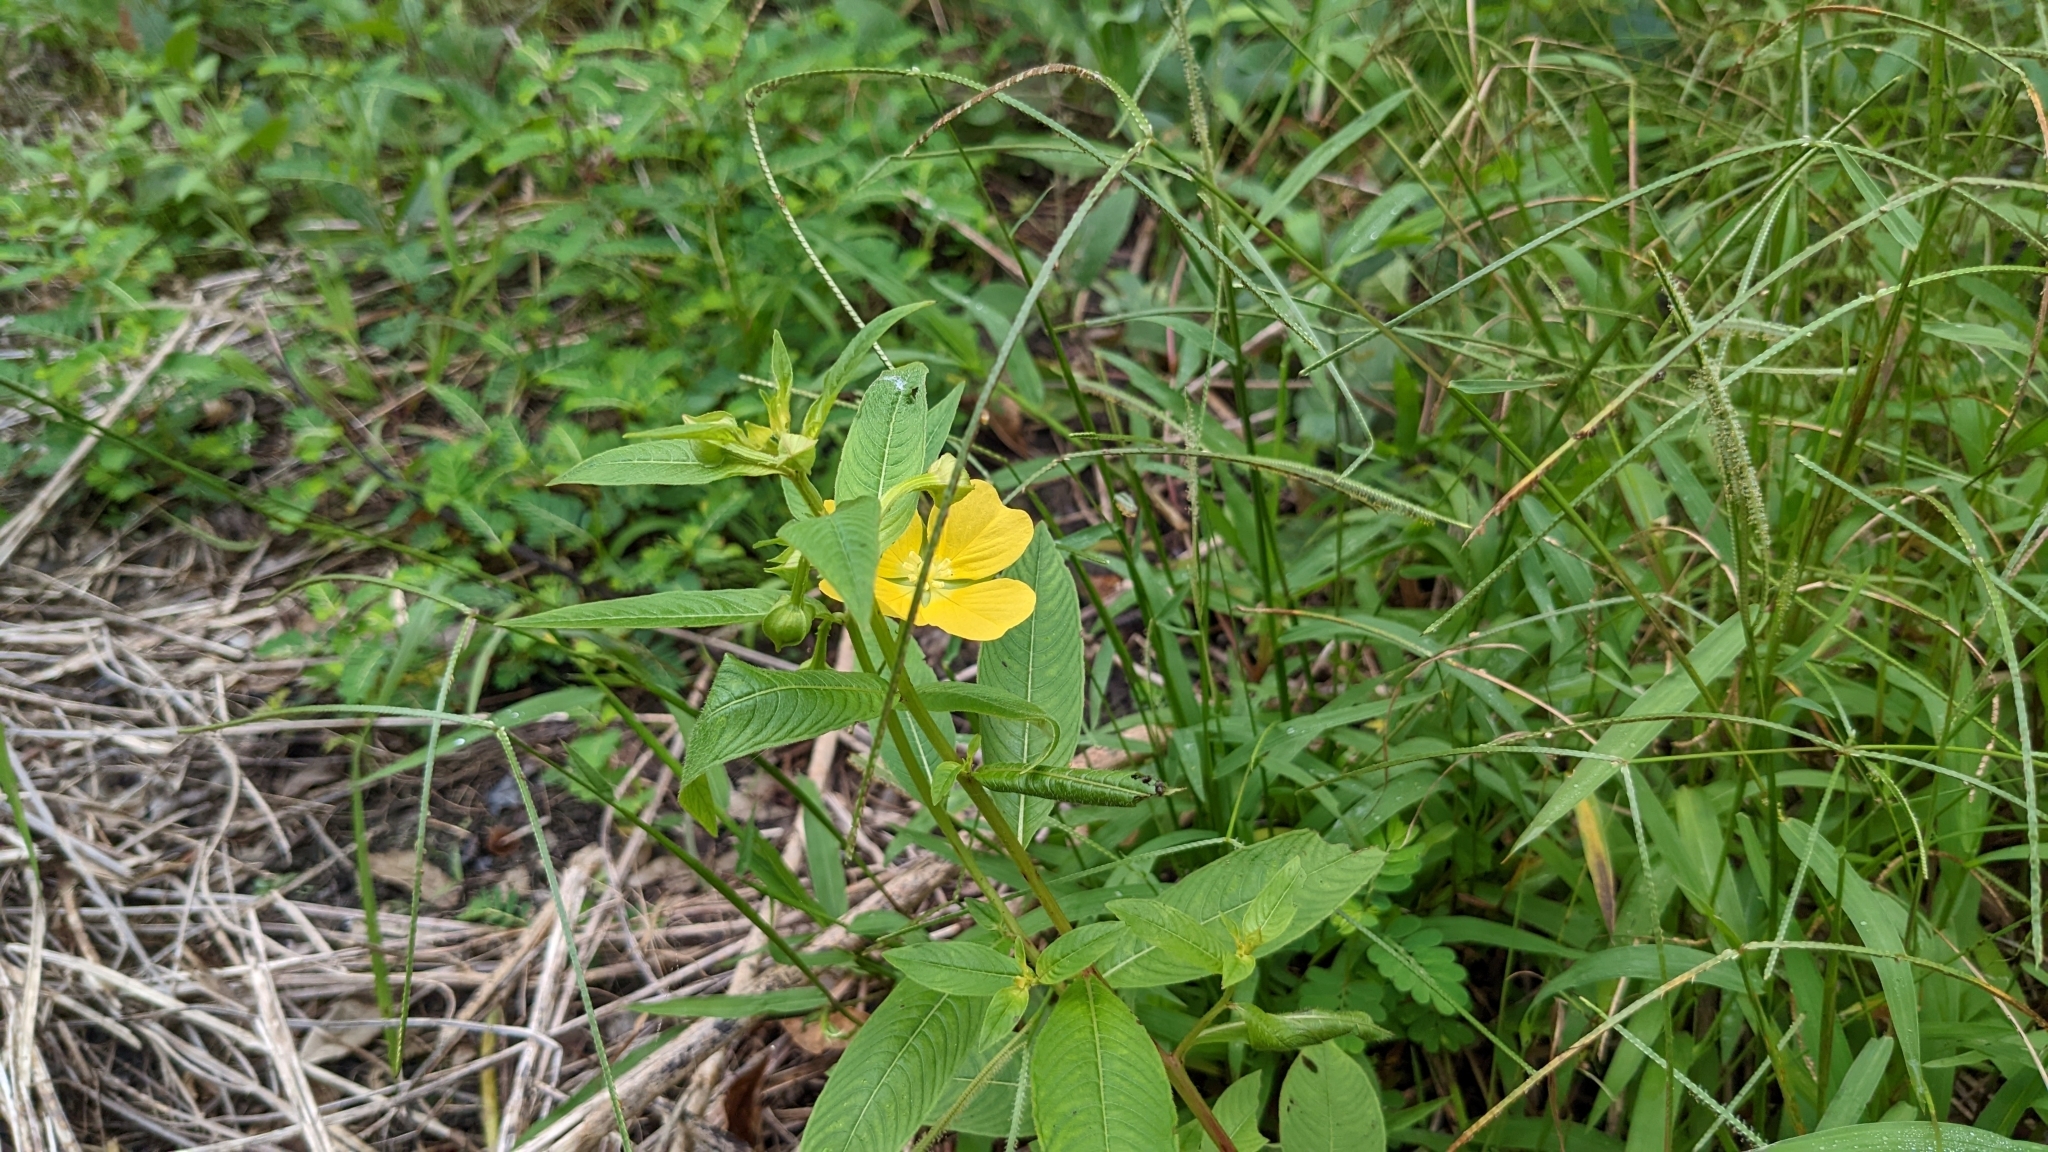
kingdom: Plantae
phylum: Tracheophyta
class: Magnoliopsida
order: Myrtales
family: Onagraceae
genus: Ludwigia
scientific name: Ludwigia octovalvis
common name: Water-primrose
